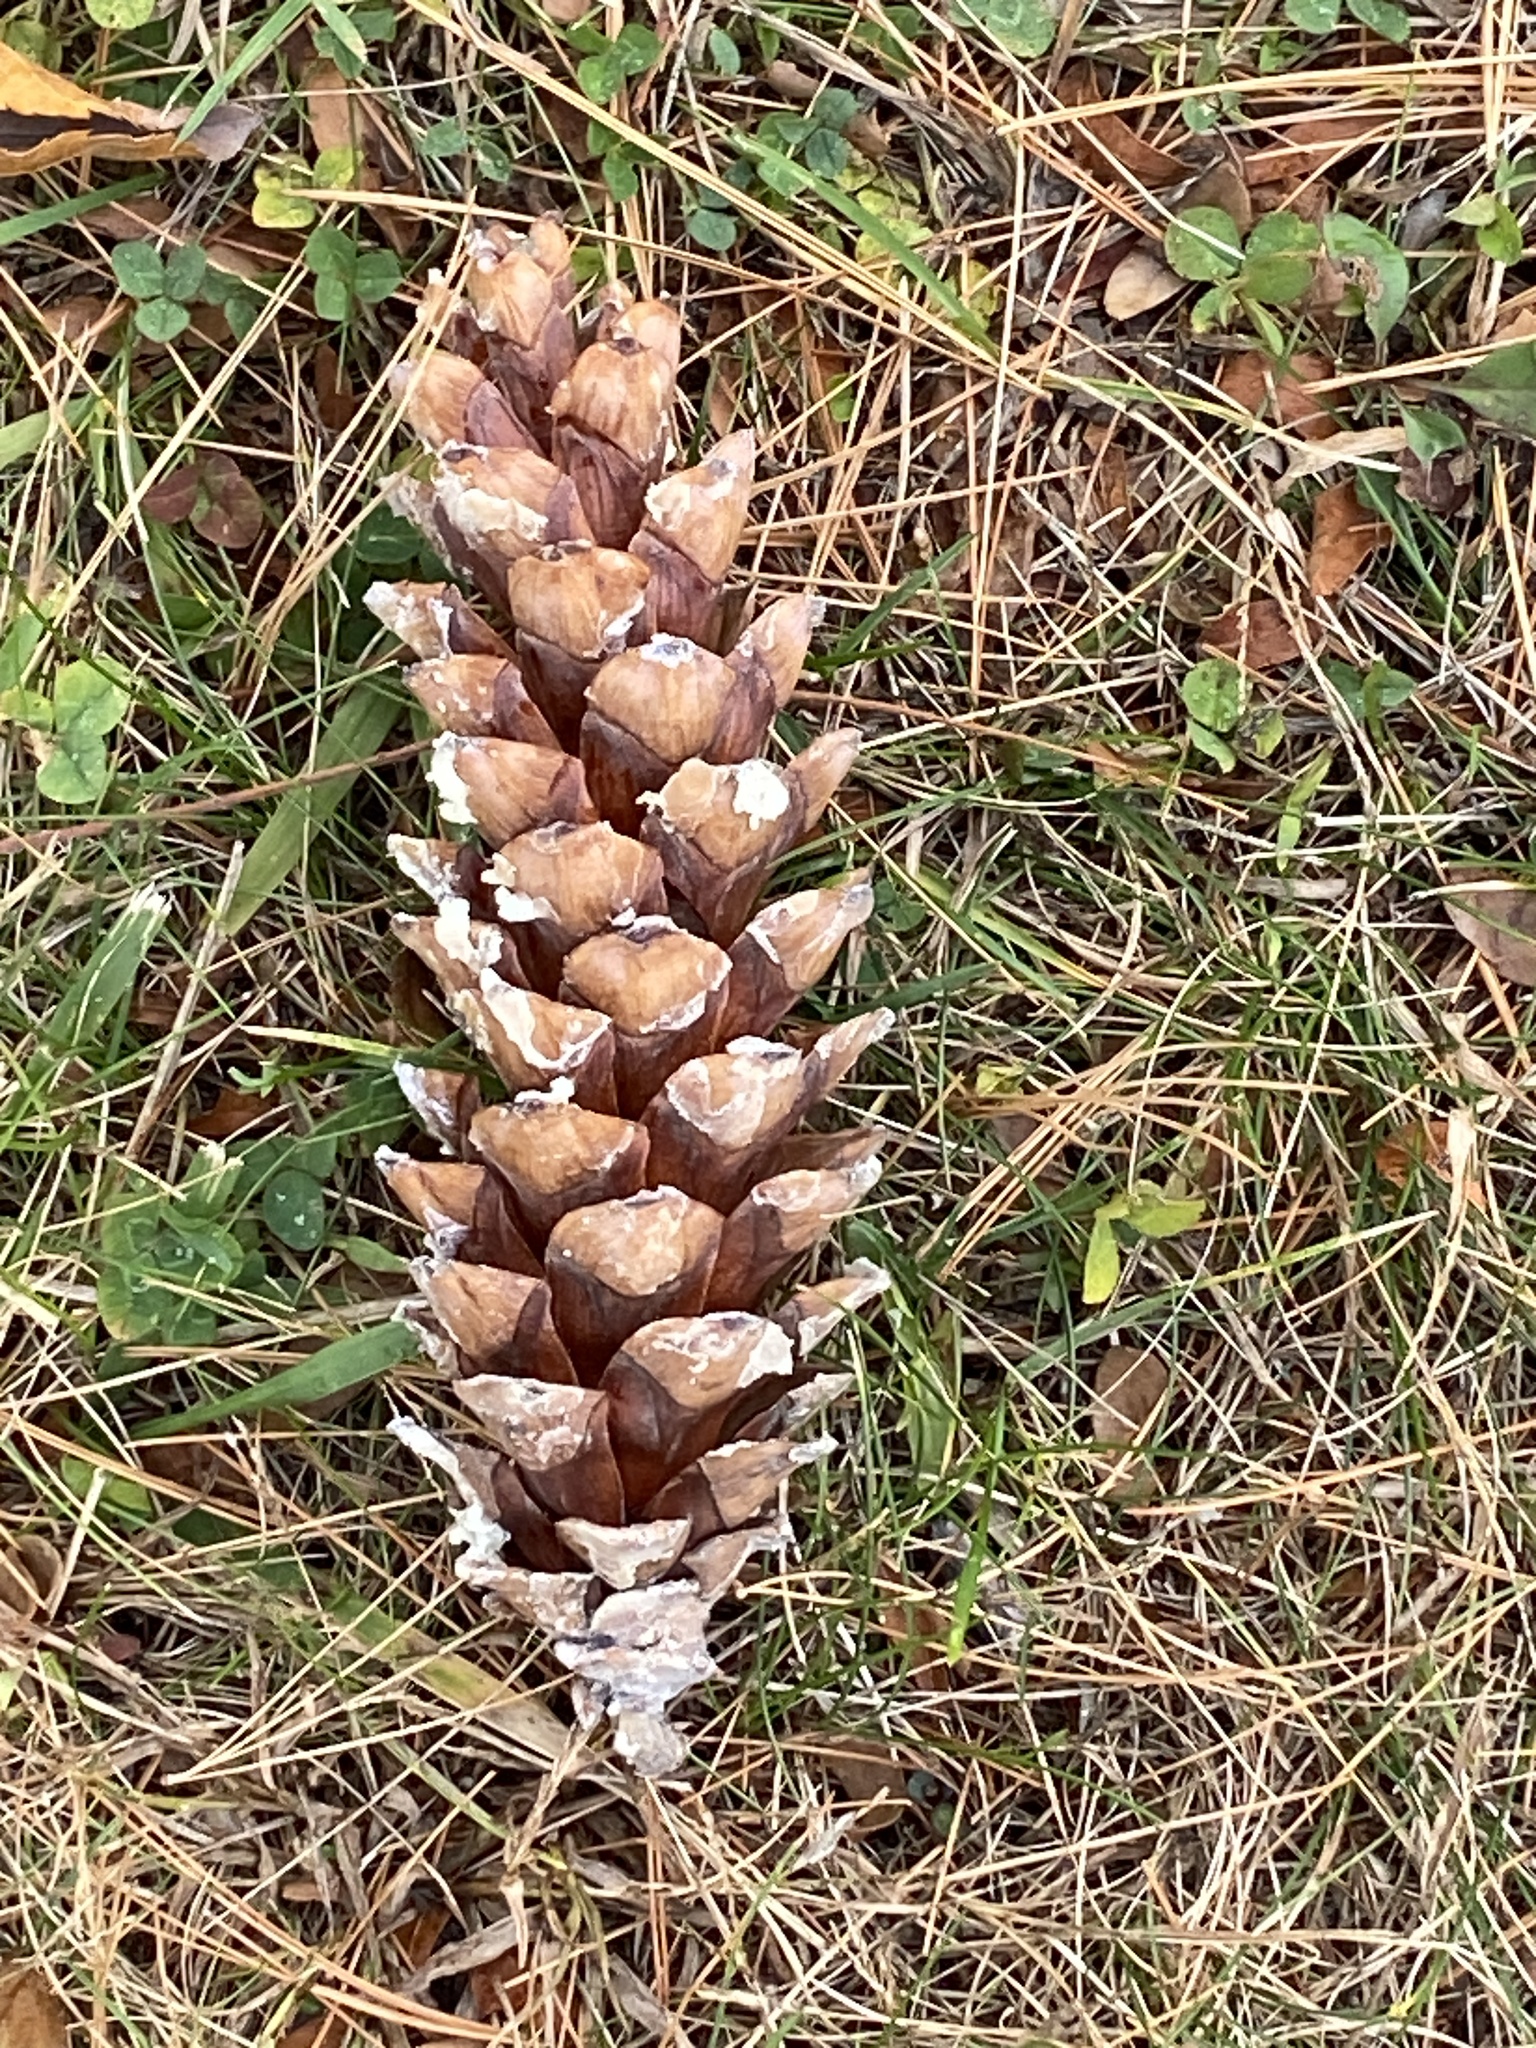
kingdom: Plantae
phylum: Tracheophyta
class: Pinopsida
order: Pinales
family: Pinaceae
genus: Pinus
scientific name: Pinus strobus
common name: Weymouth pine
